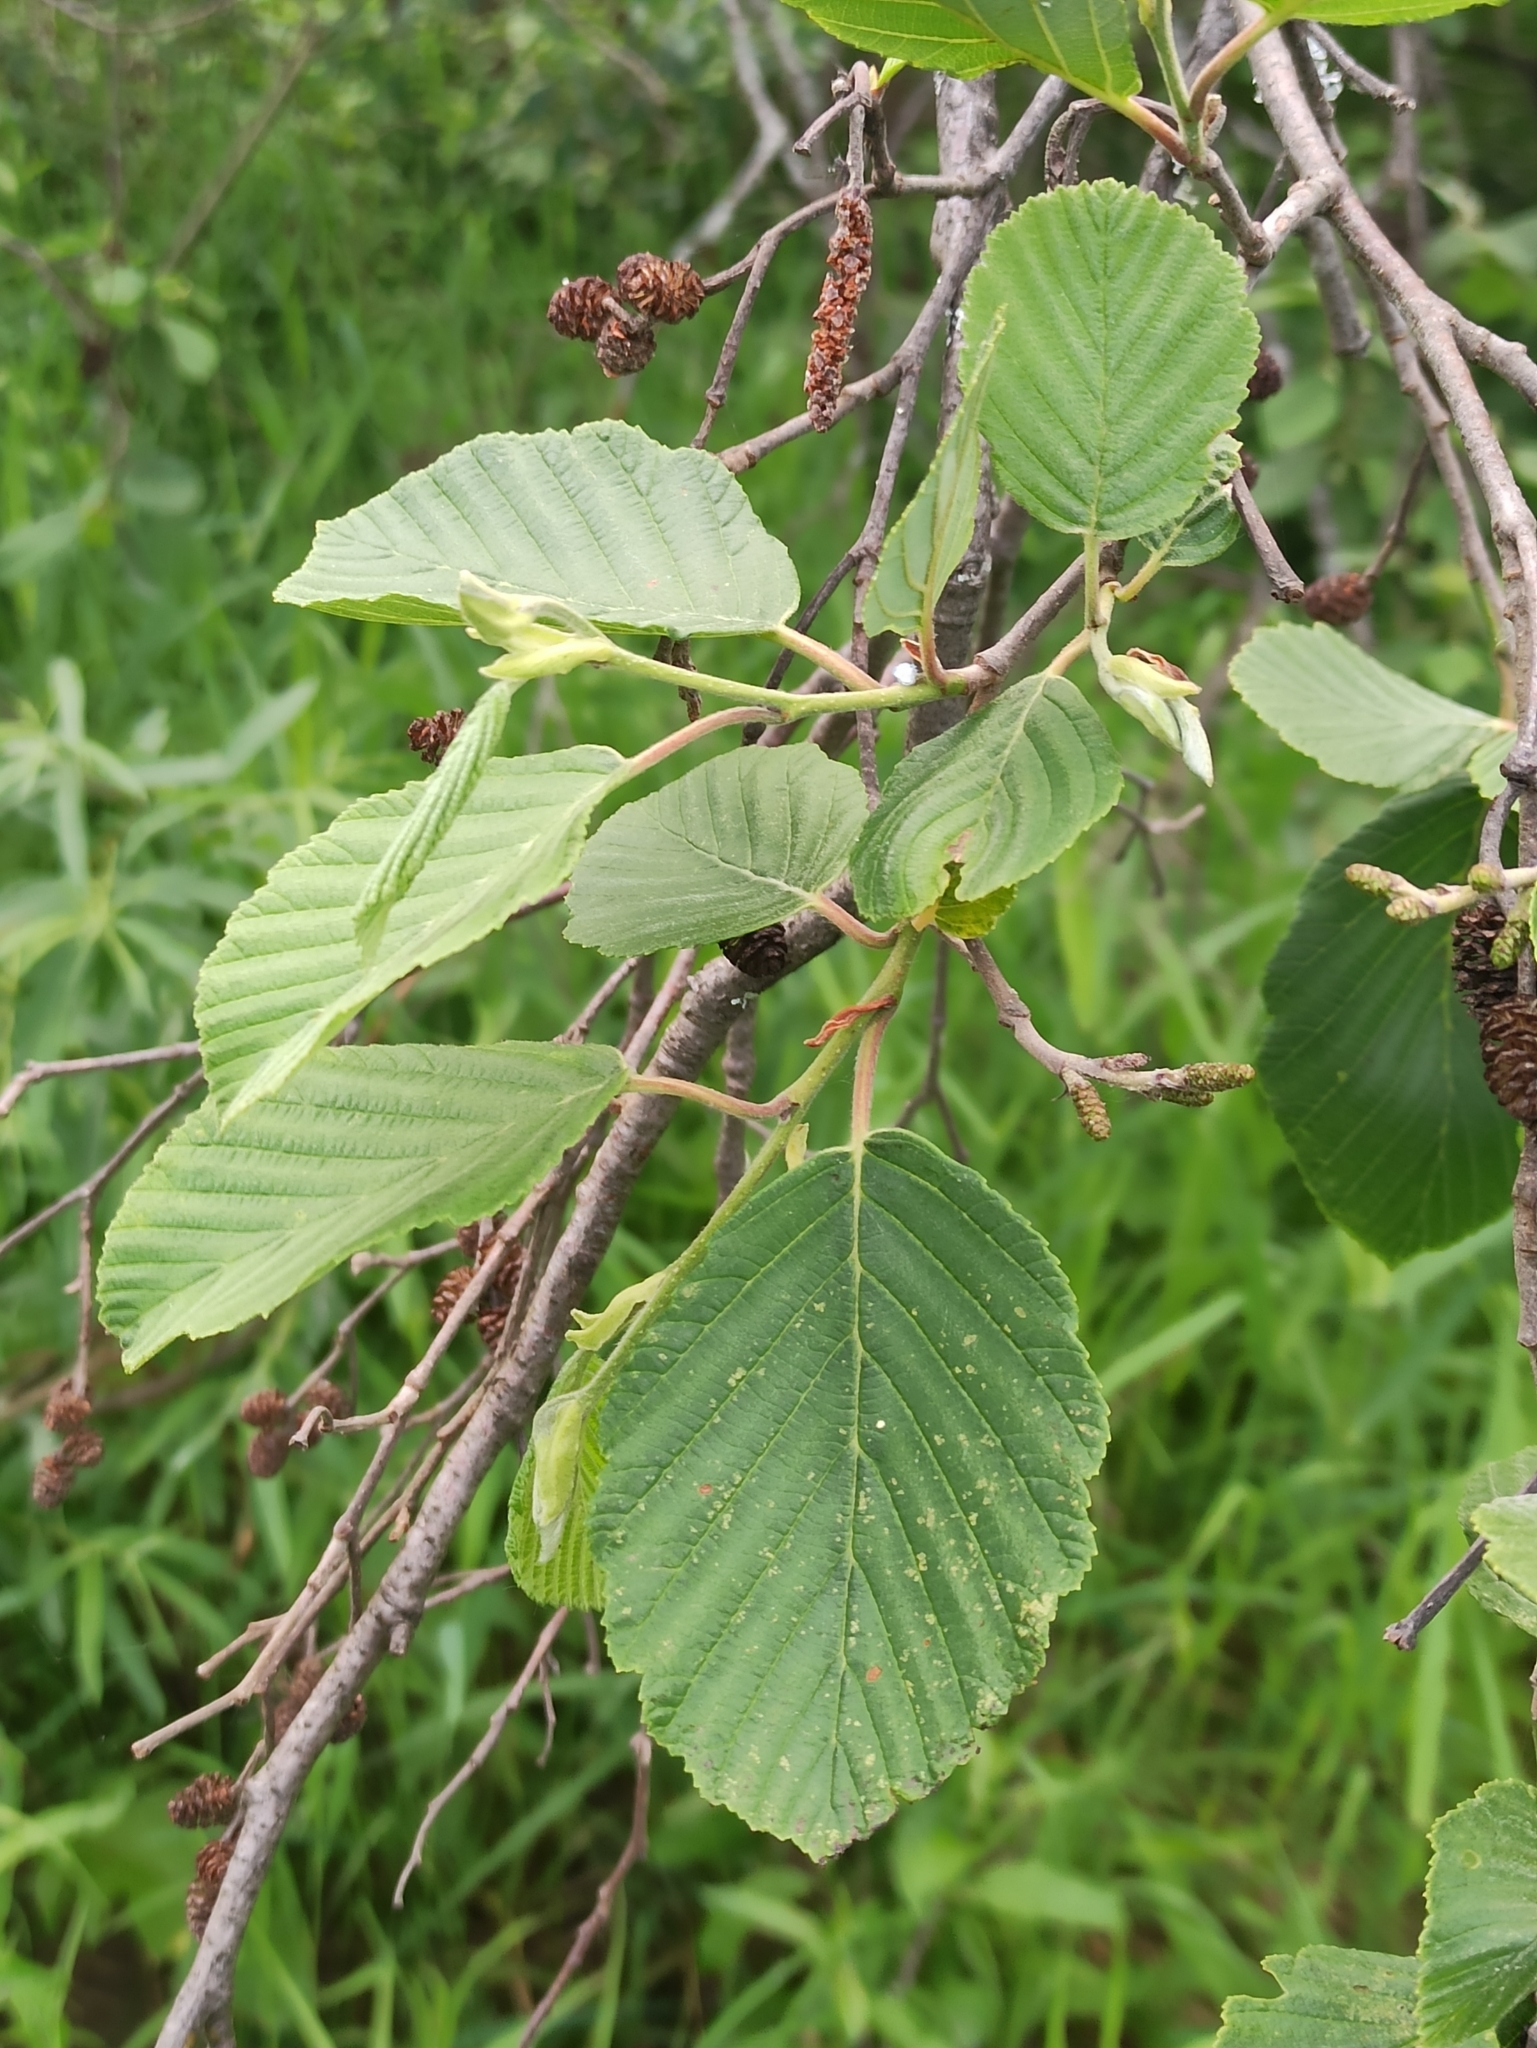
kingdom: Plantae
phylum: Tracheophyta
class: Magnoliopsida
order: Fagales
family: Betulaceae
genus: Alnus
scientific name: Alnus incana
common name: Grey alder
